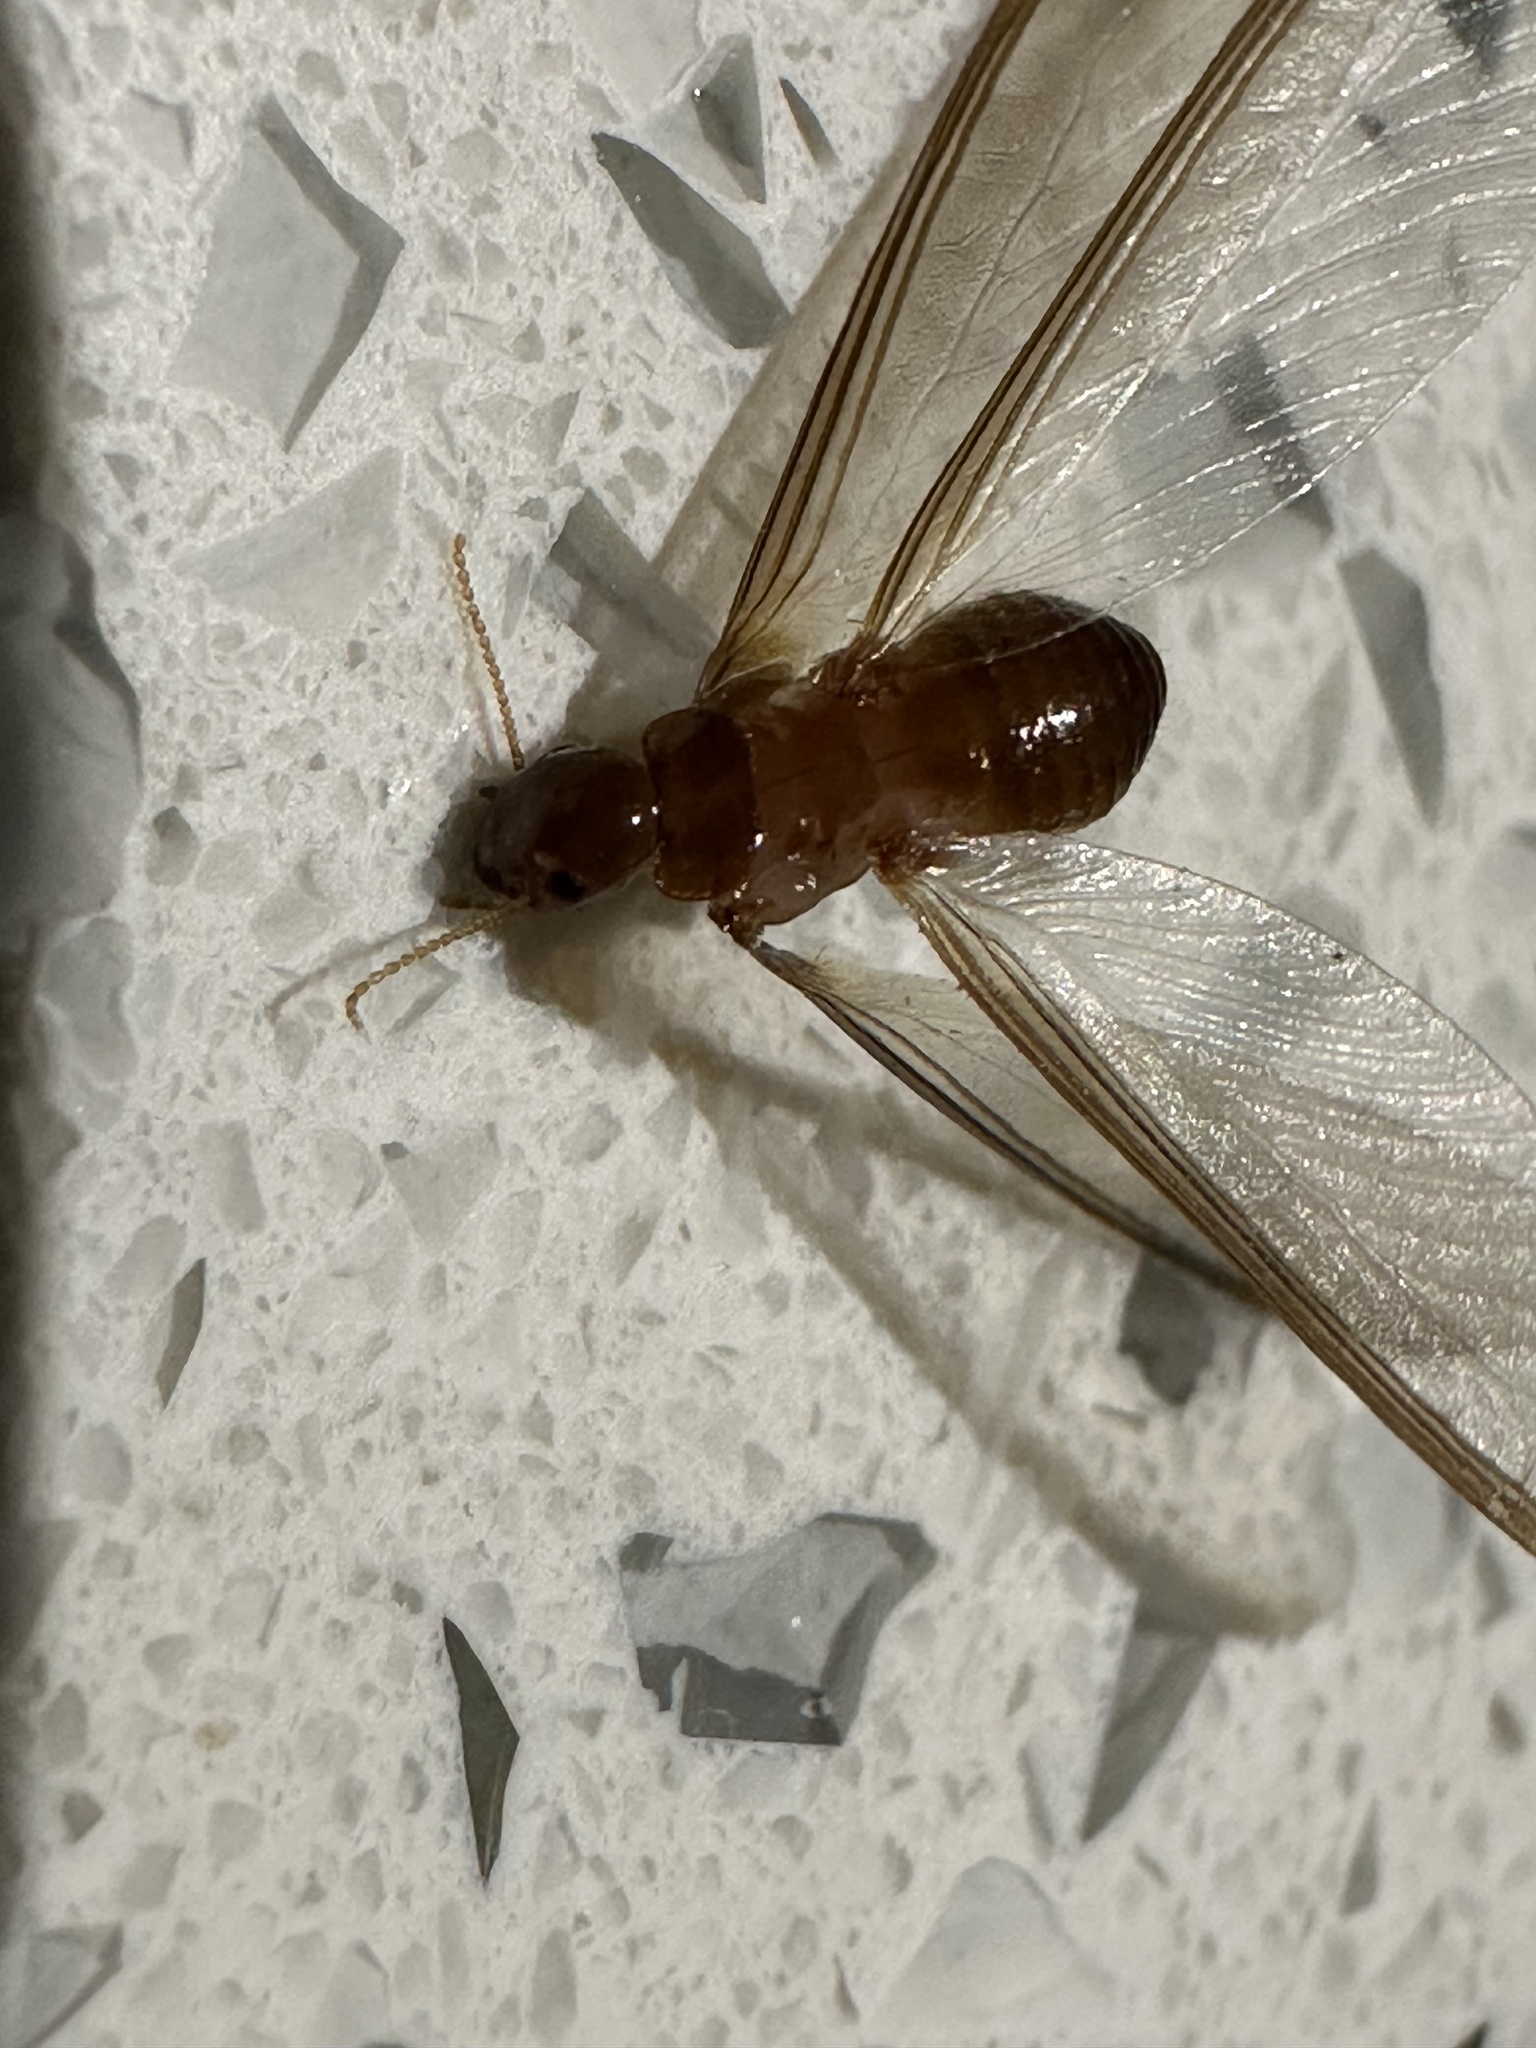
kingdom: Animalia
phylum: Arthropoda
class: Insecta
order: Blattodea
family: Kalotermitidae
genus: Neotermes
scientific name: Neotermes chilensis
